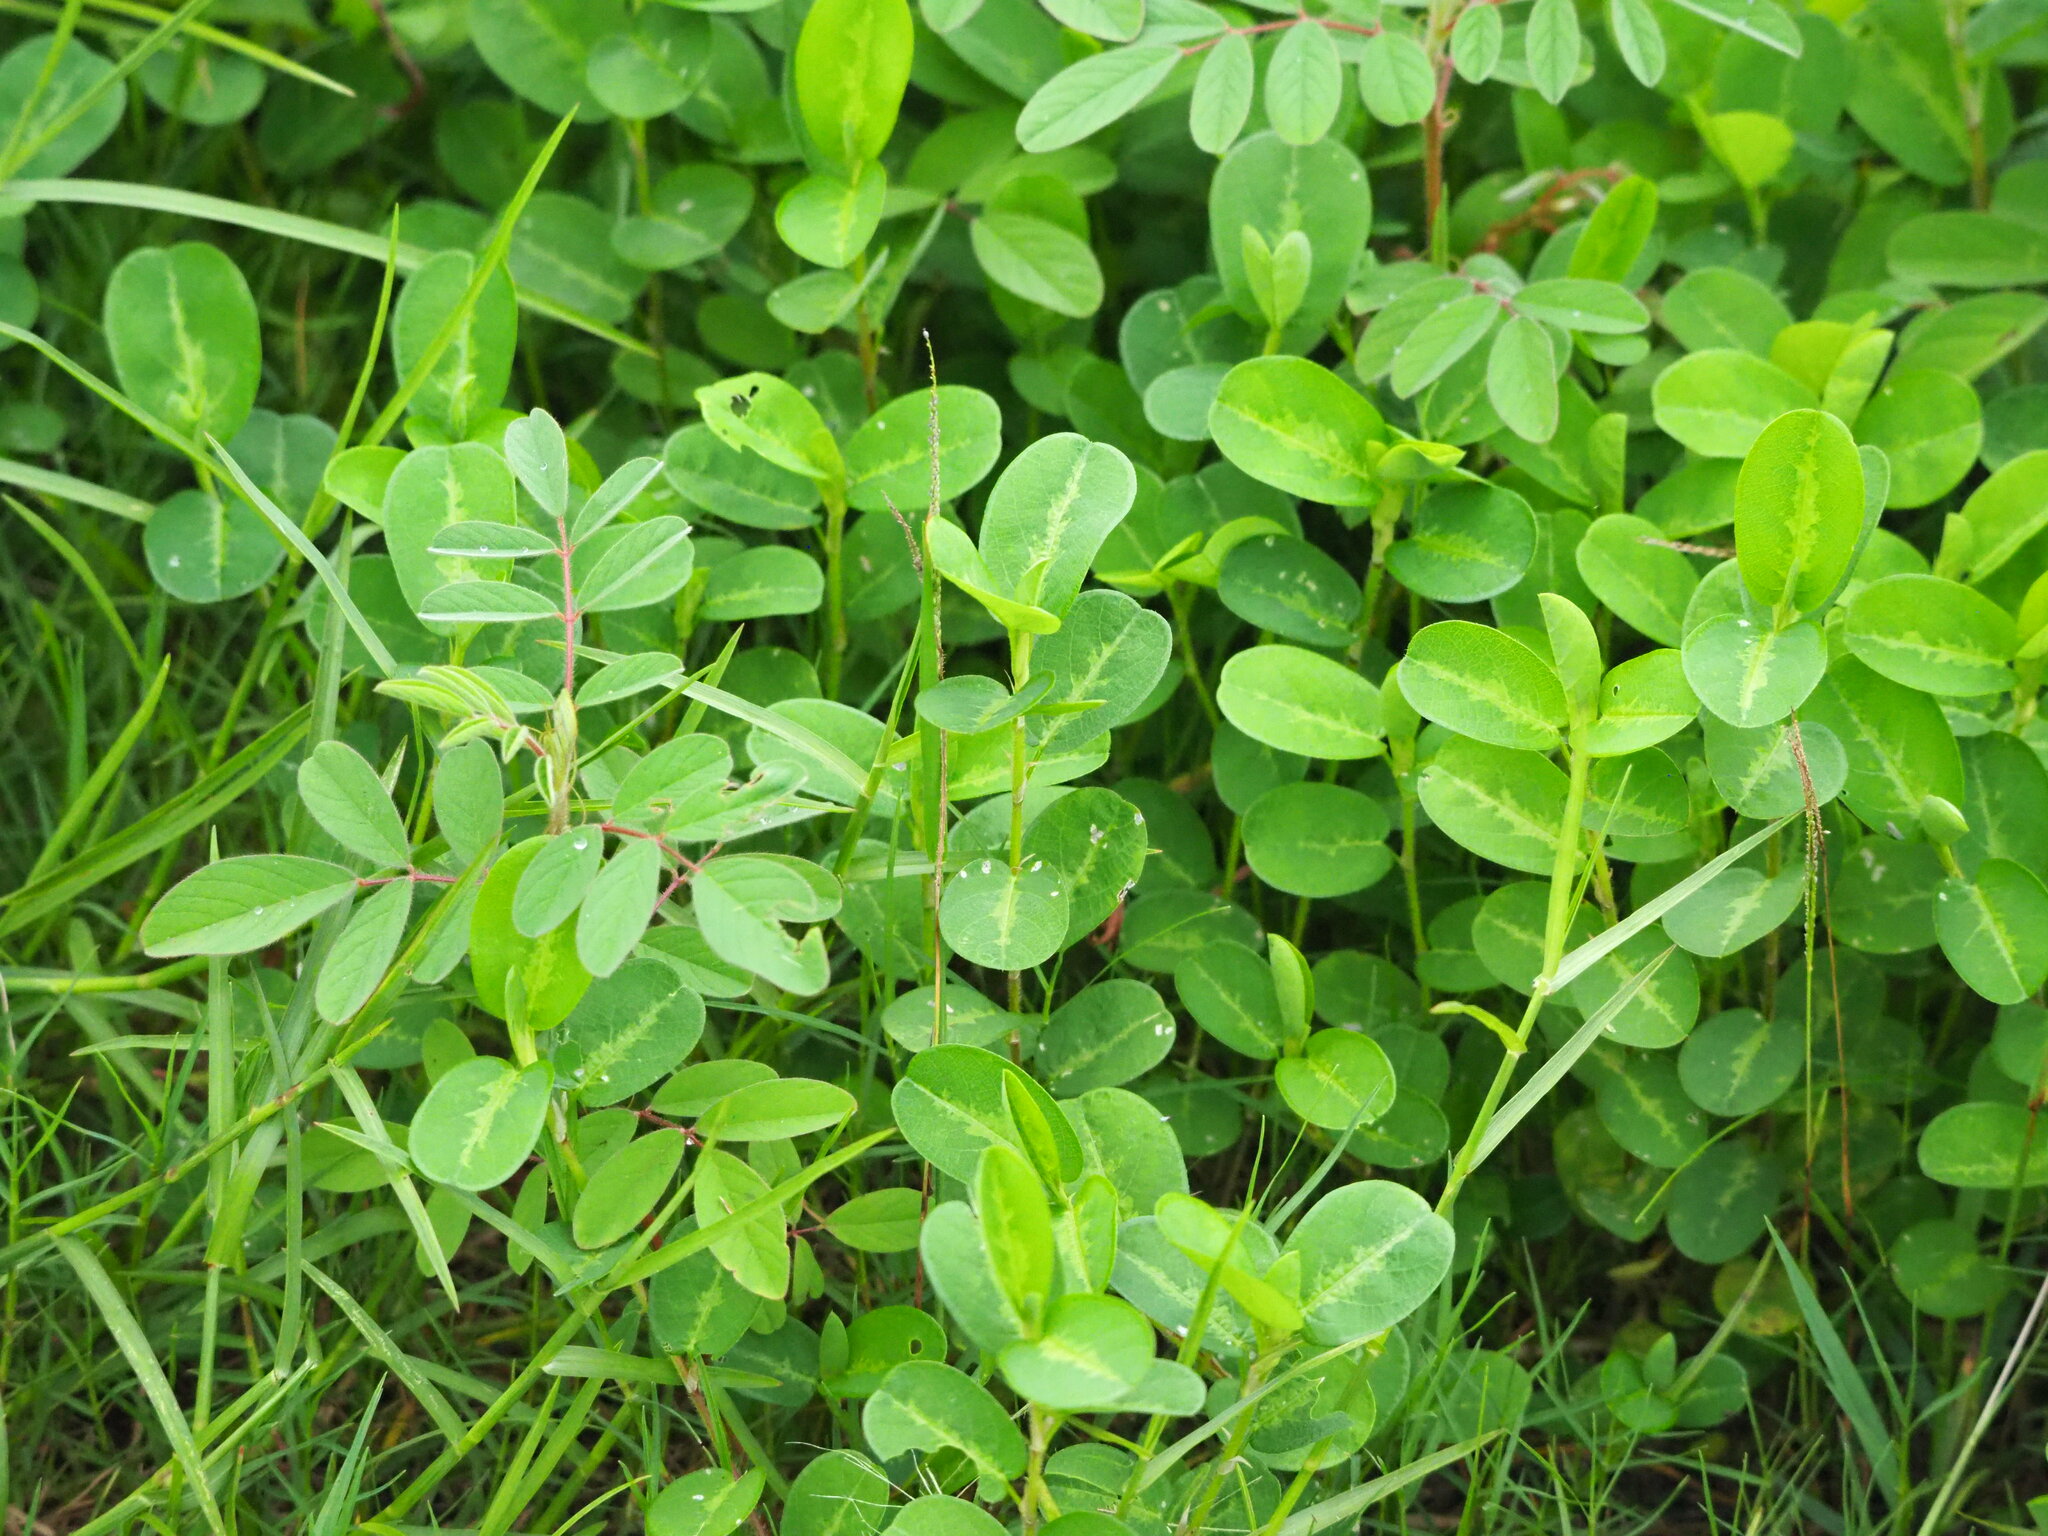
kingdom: Plantae
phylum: Tracheophyta
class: Magnoliopsida
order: Fabales
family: Fabaceae
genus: Alysicarpus
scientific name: Alysicarpus ovalifolius
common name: Alyce clover
